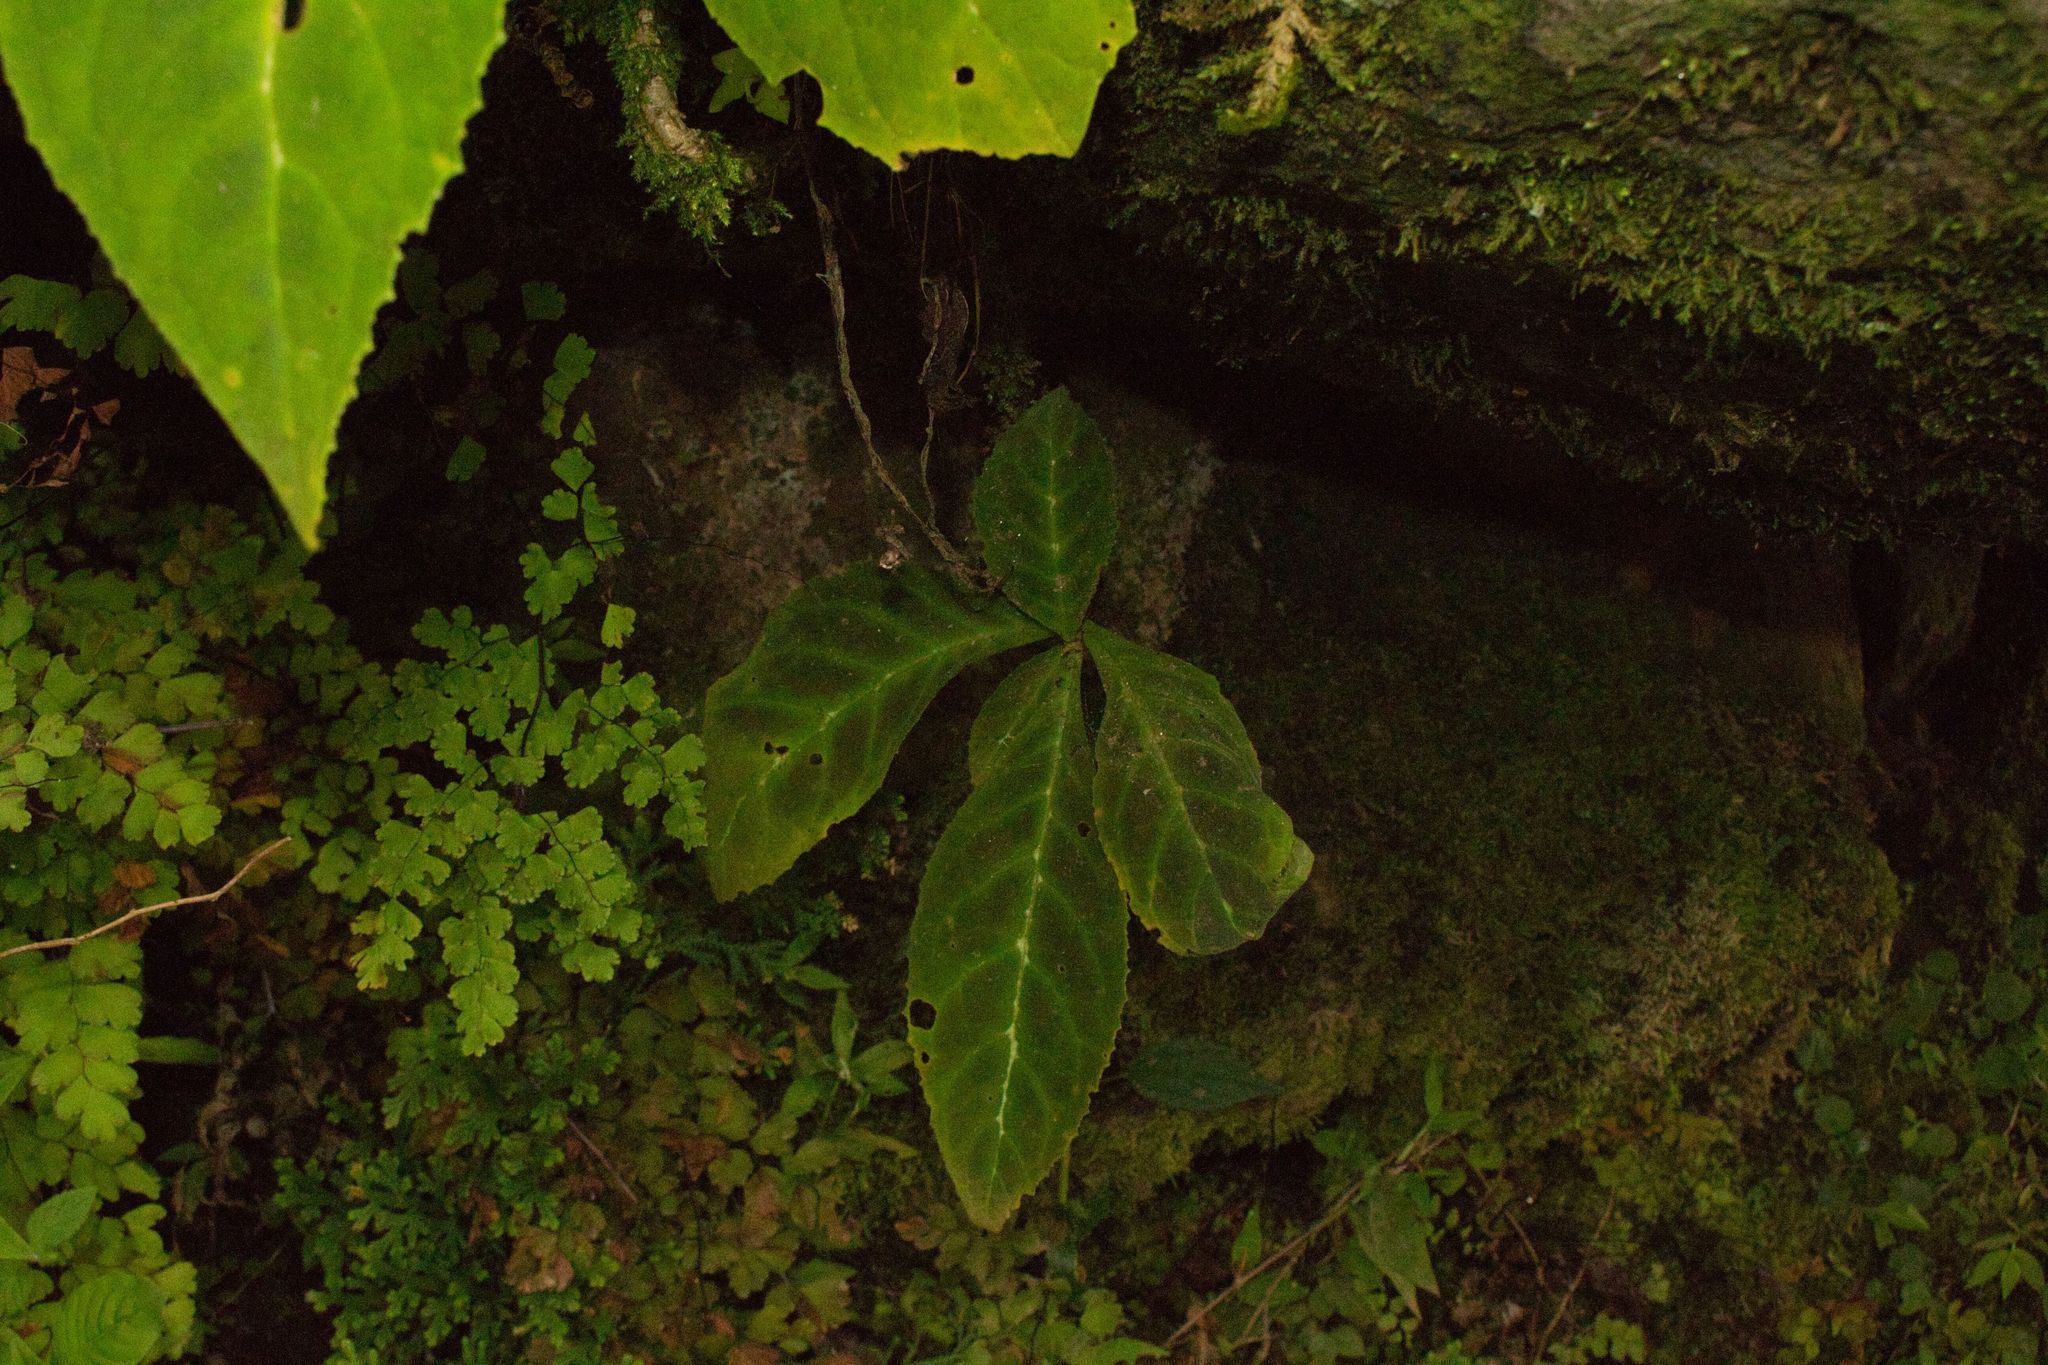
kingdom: Plantae
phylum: Tracheophyta
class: Magnoliopsida
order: Lamiales
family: Gesneriaceae
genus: Drymonia
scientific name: Drymonia parviflora
